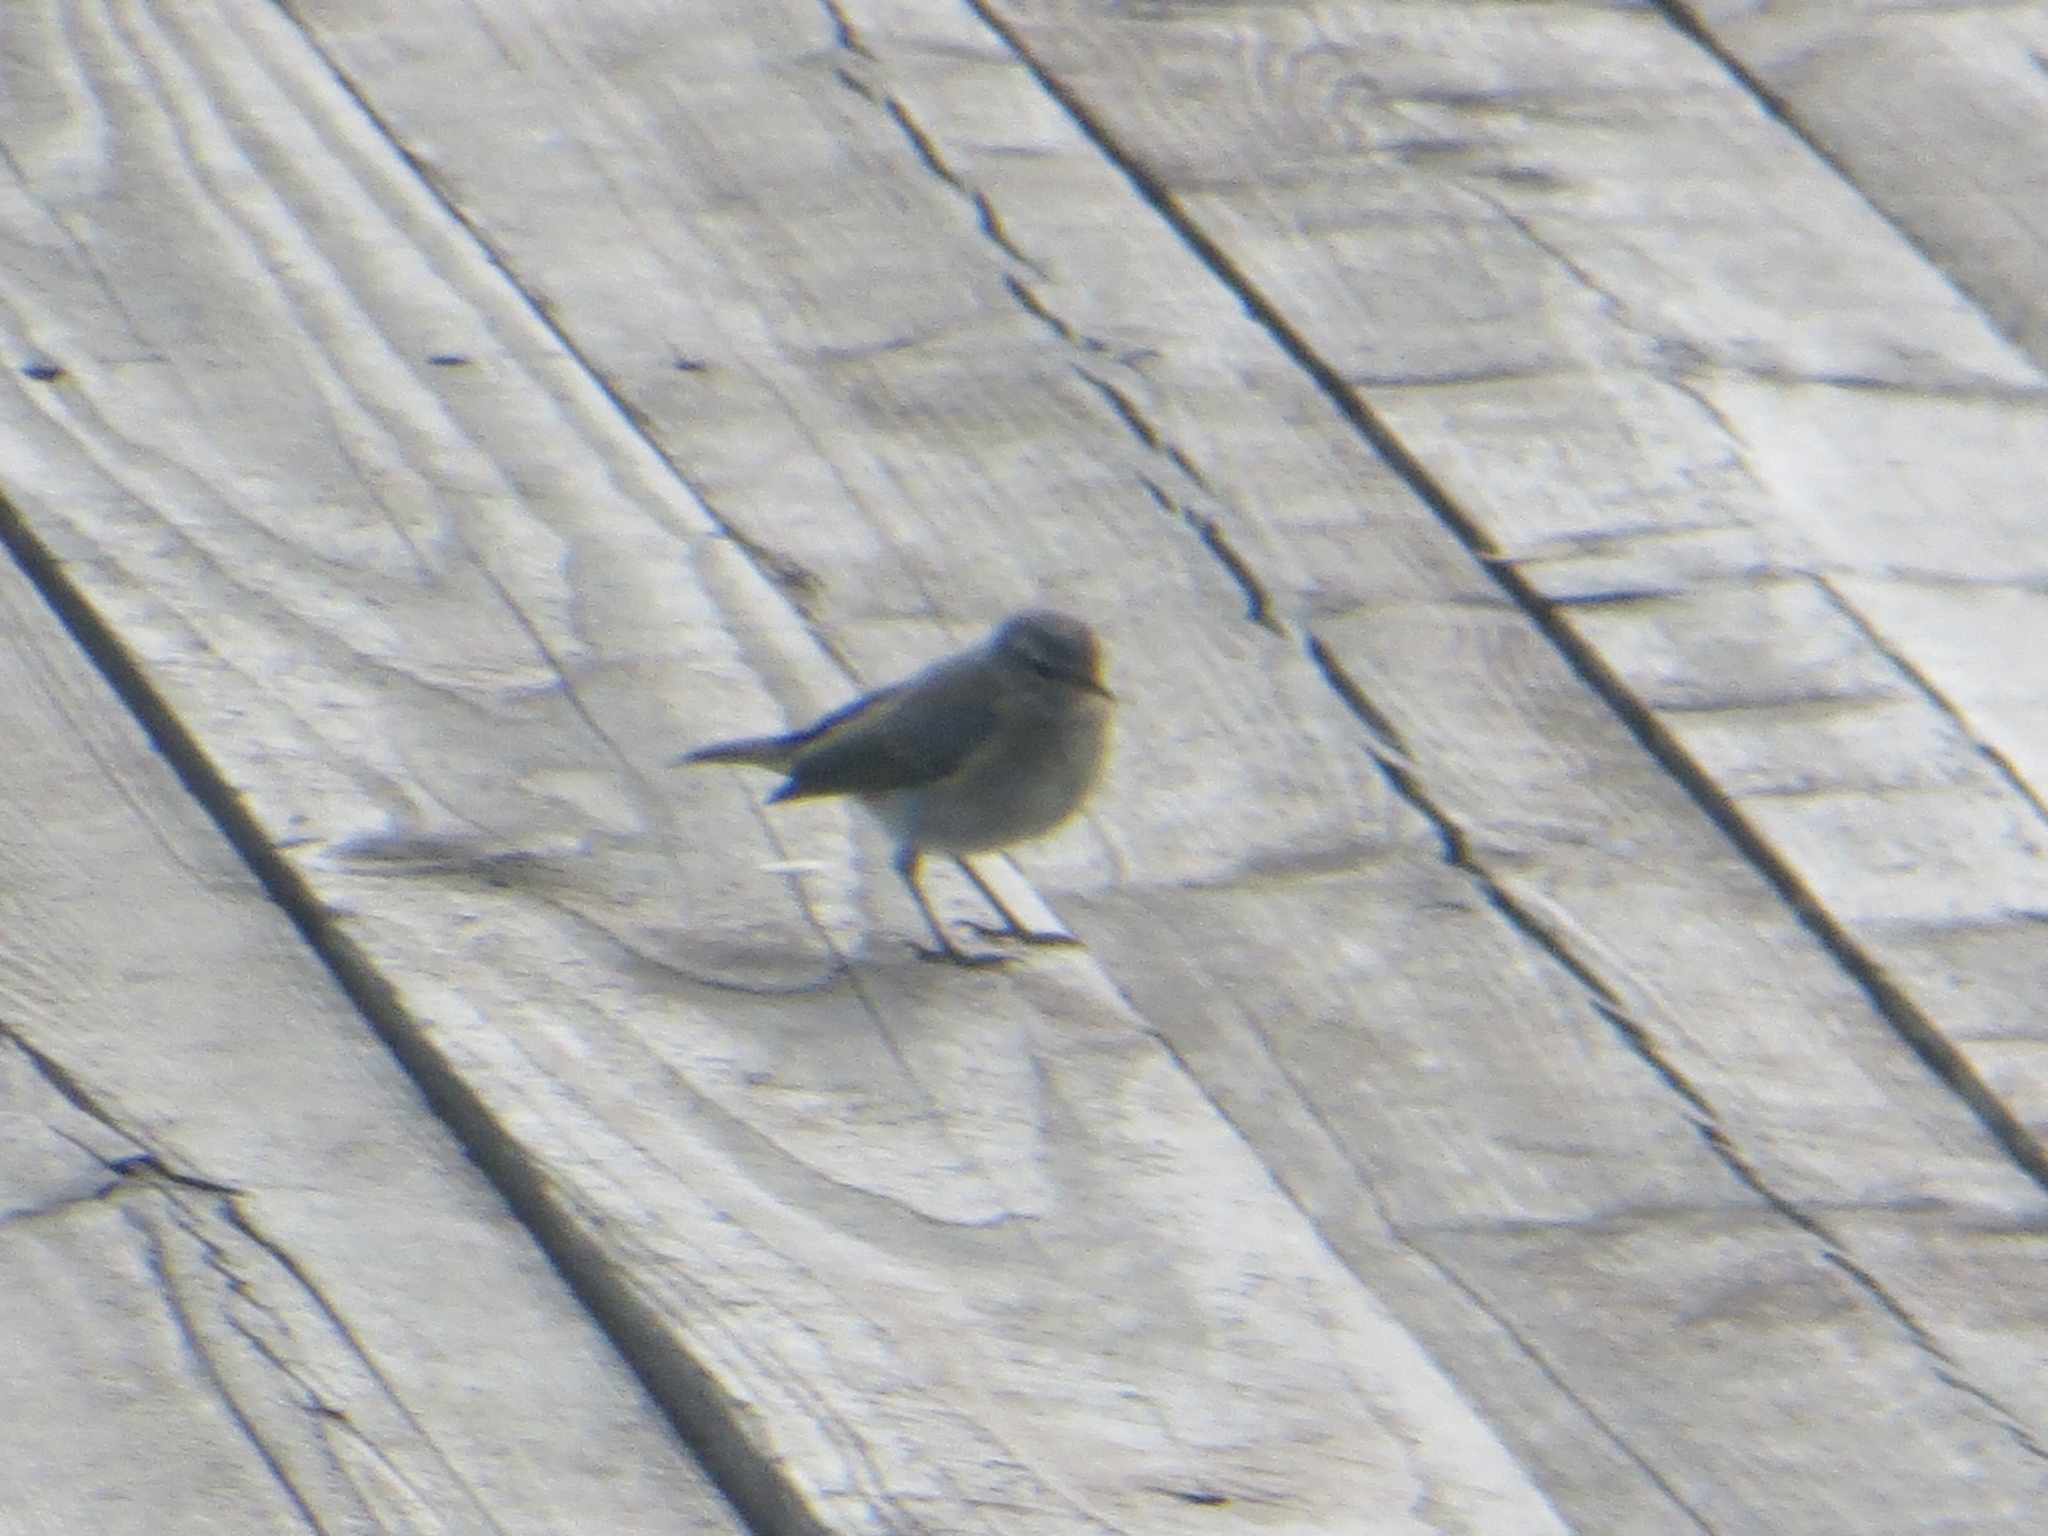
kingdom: Animalia
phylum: Chordata
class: Aves
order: Passeriformes
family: Phylloscopidae
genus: Phylloscopus
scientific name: Phylloscopus collybita
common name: Common chiffchaff
